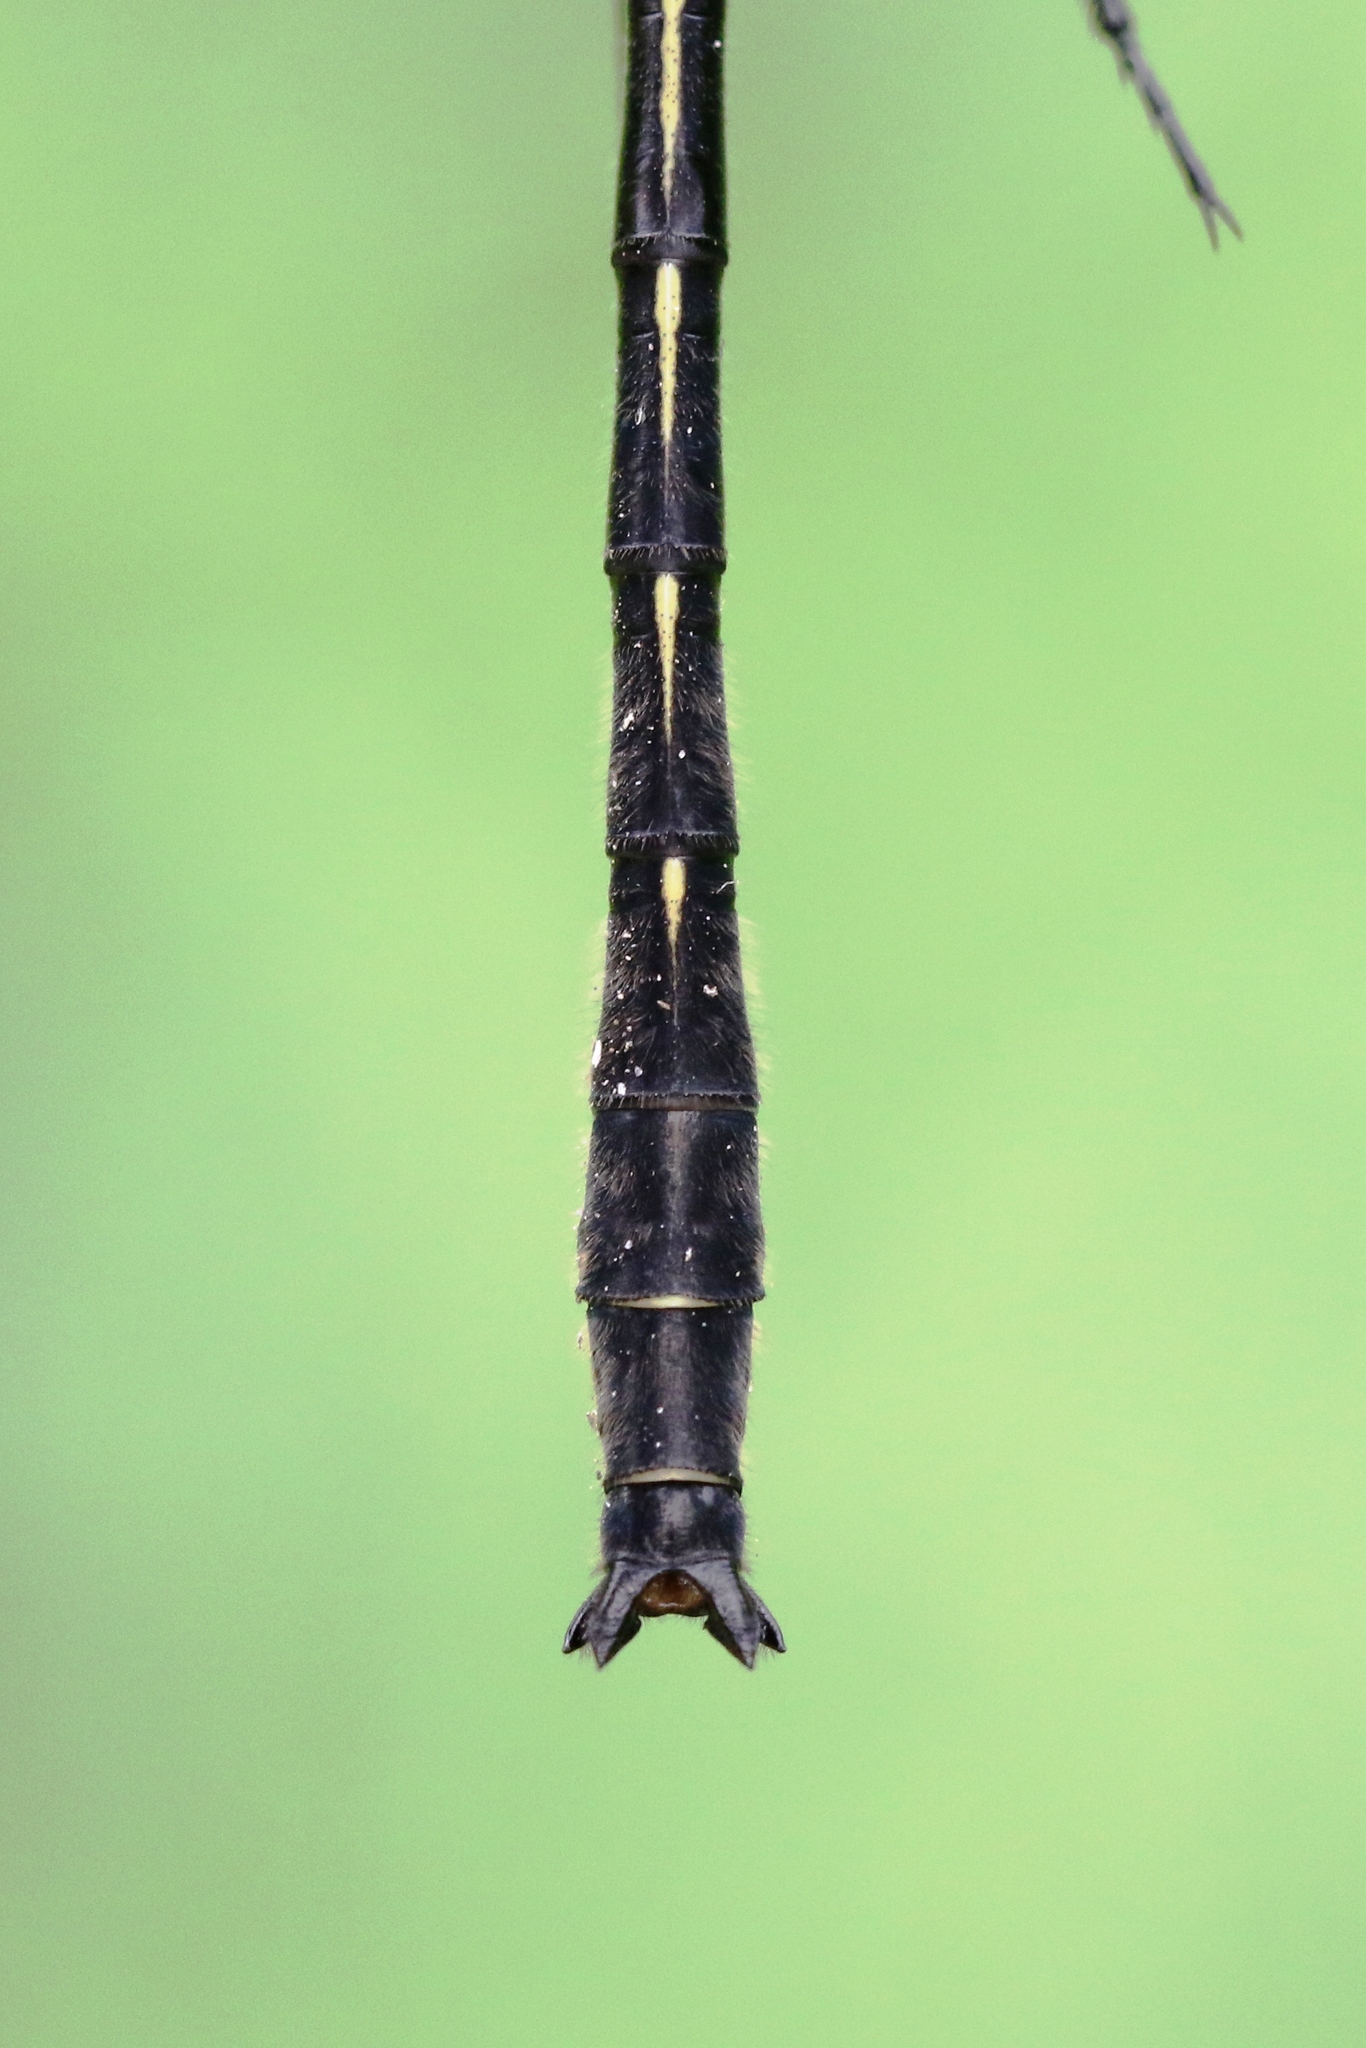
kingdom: Animalia
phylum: Arthropoda
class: Insecta
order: Odonata
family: Gomphidae
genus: Phanogomphus
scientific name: Phanogomphus descriptus
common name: Harpoon clubtail
